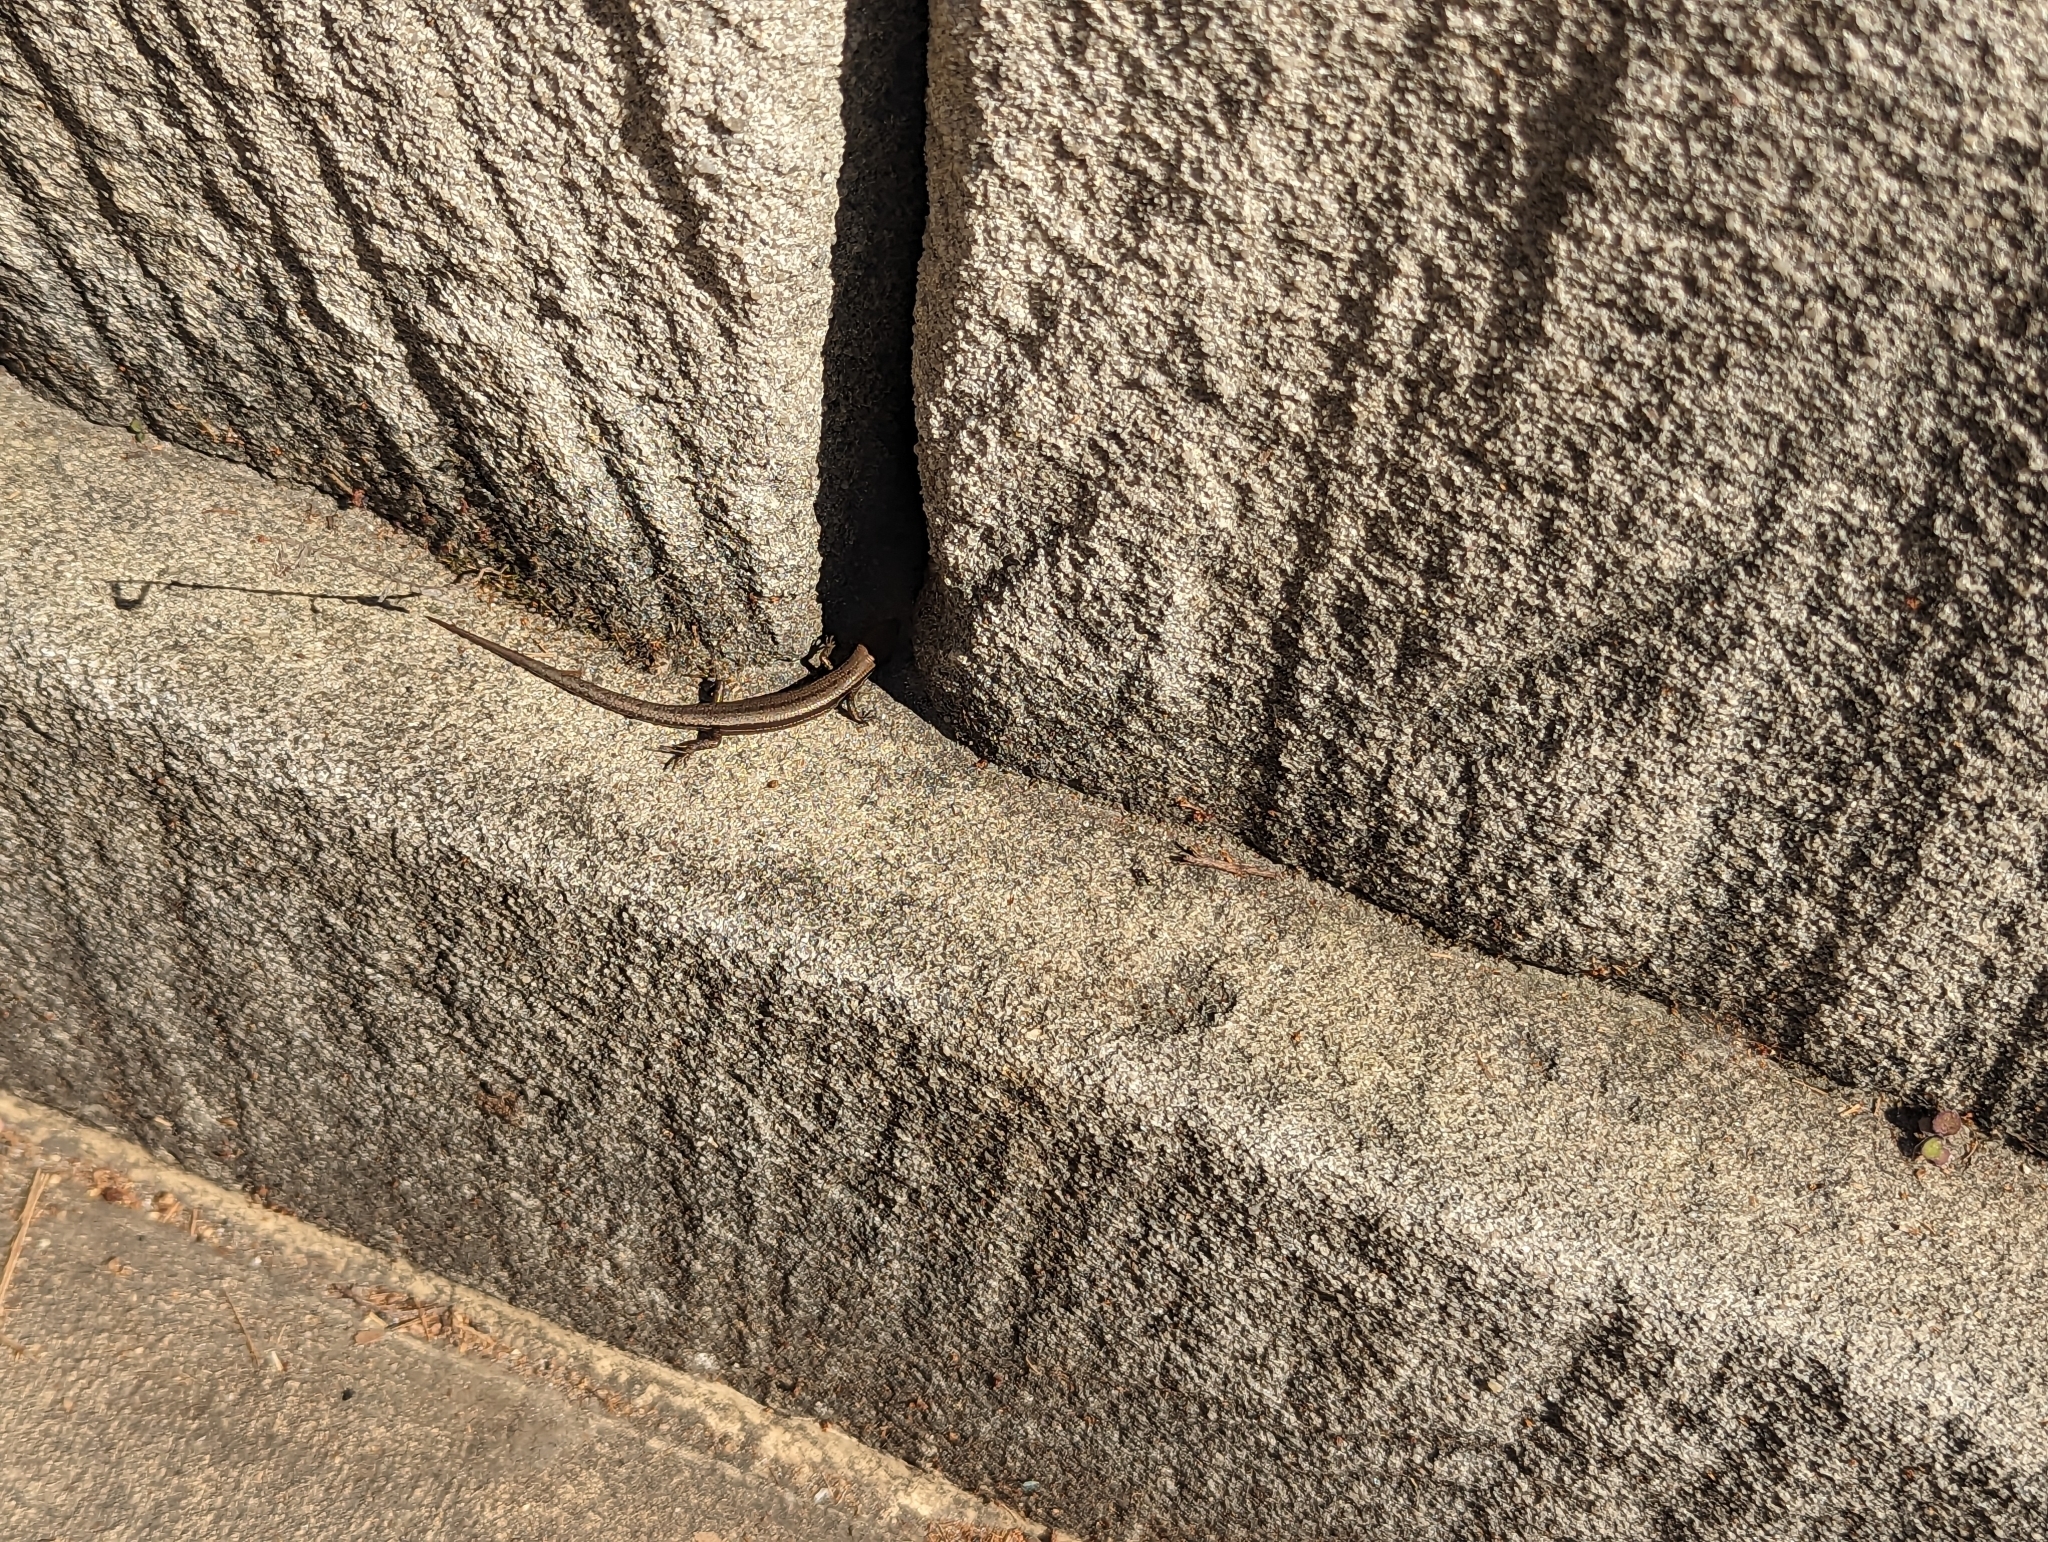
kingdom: Animalia
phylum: Chordata
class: Squamata
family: Scincidae
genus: Lampropholis
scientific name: Lampropholis guichenoti
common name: Garden skink
